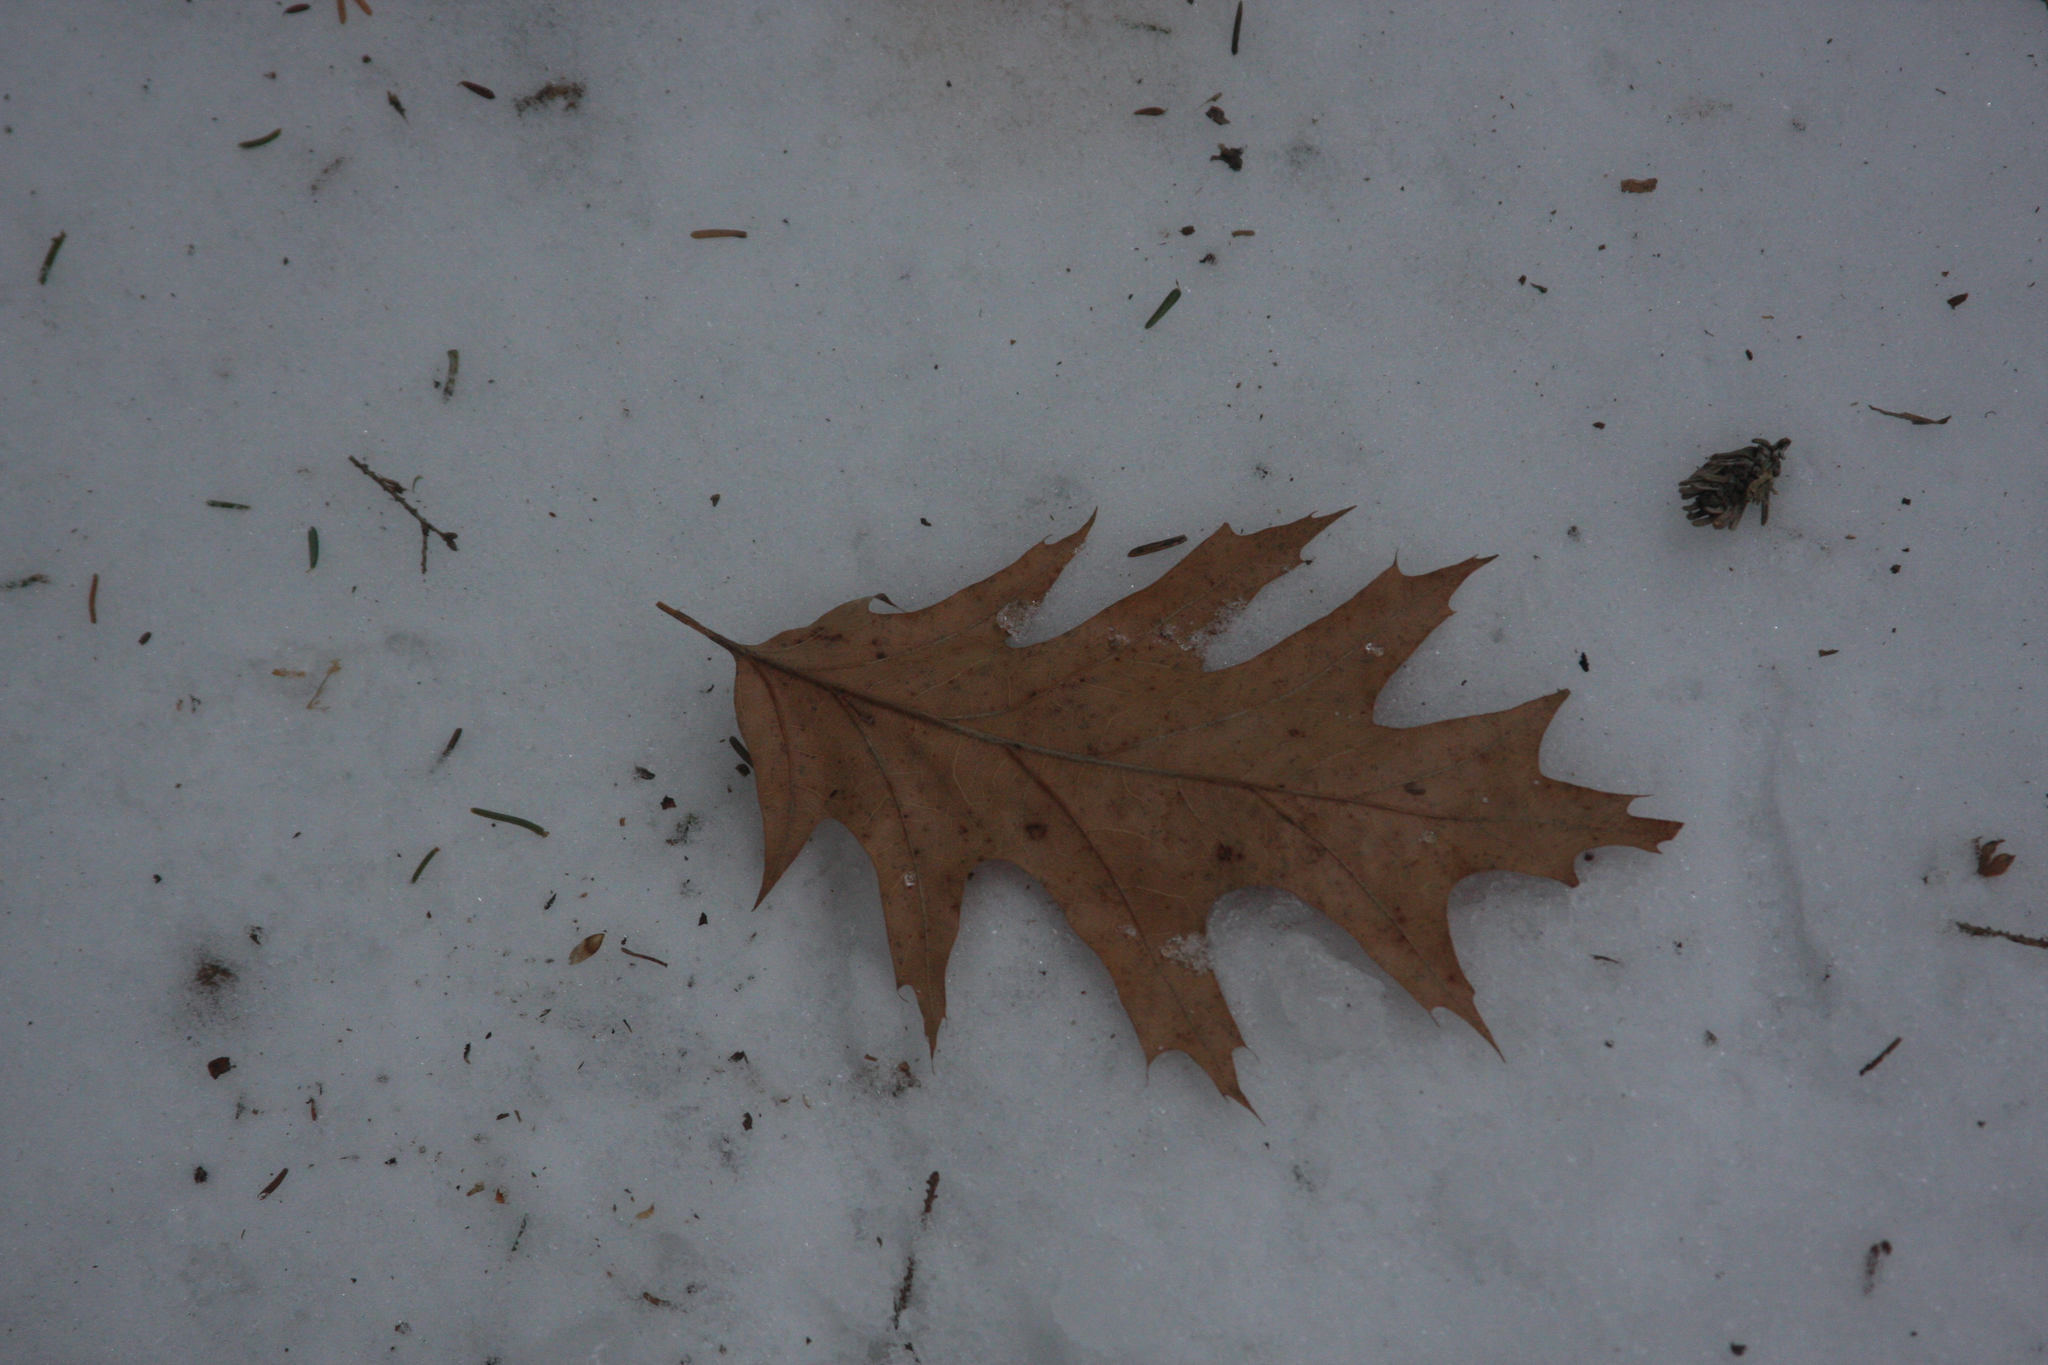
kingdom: Plantae
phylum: Tracheophyta
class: Magnoliopsida
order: Fagales
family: Fagaceae
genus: Quercus
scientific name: Quercus rubra
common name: Red oak
